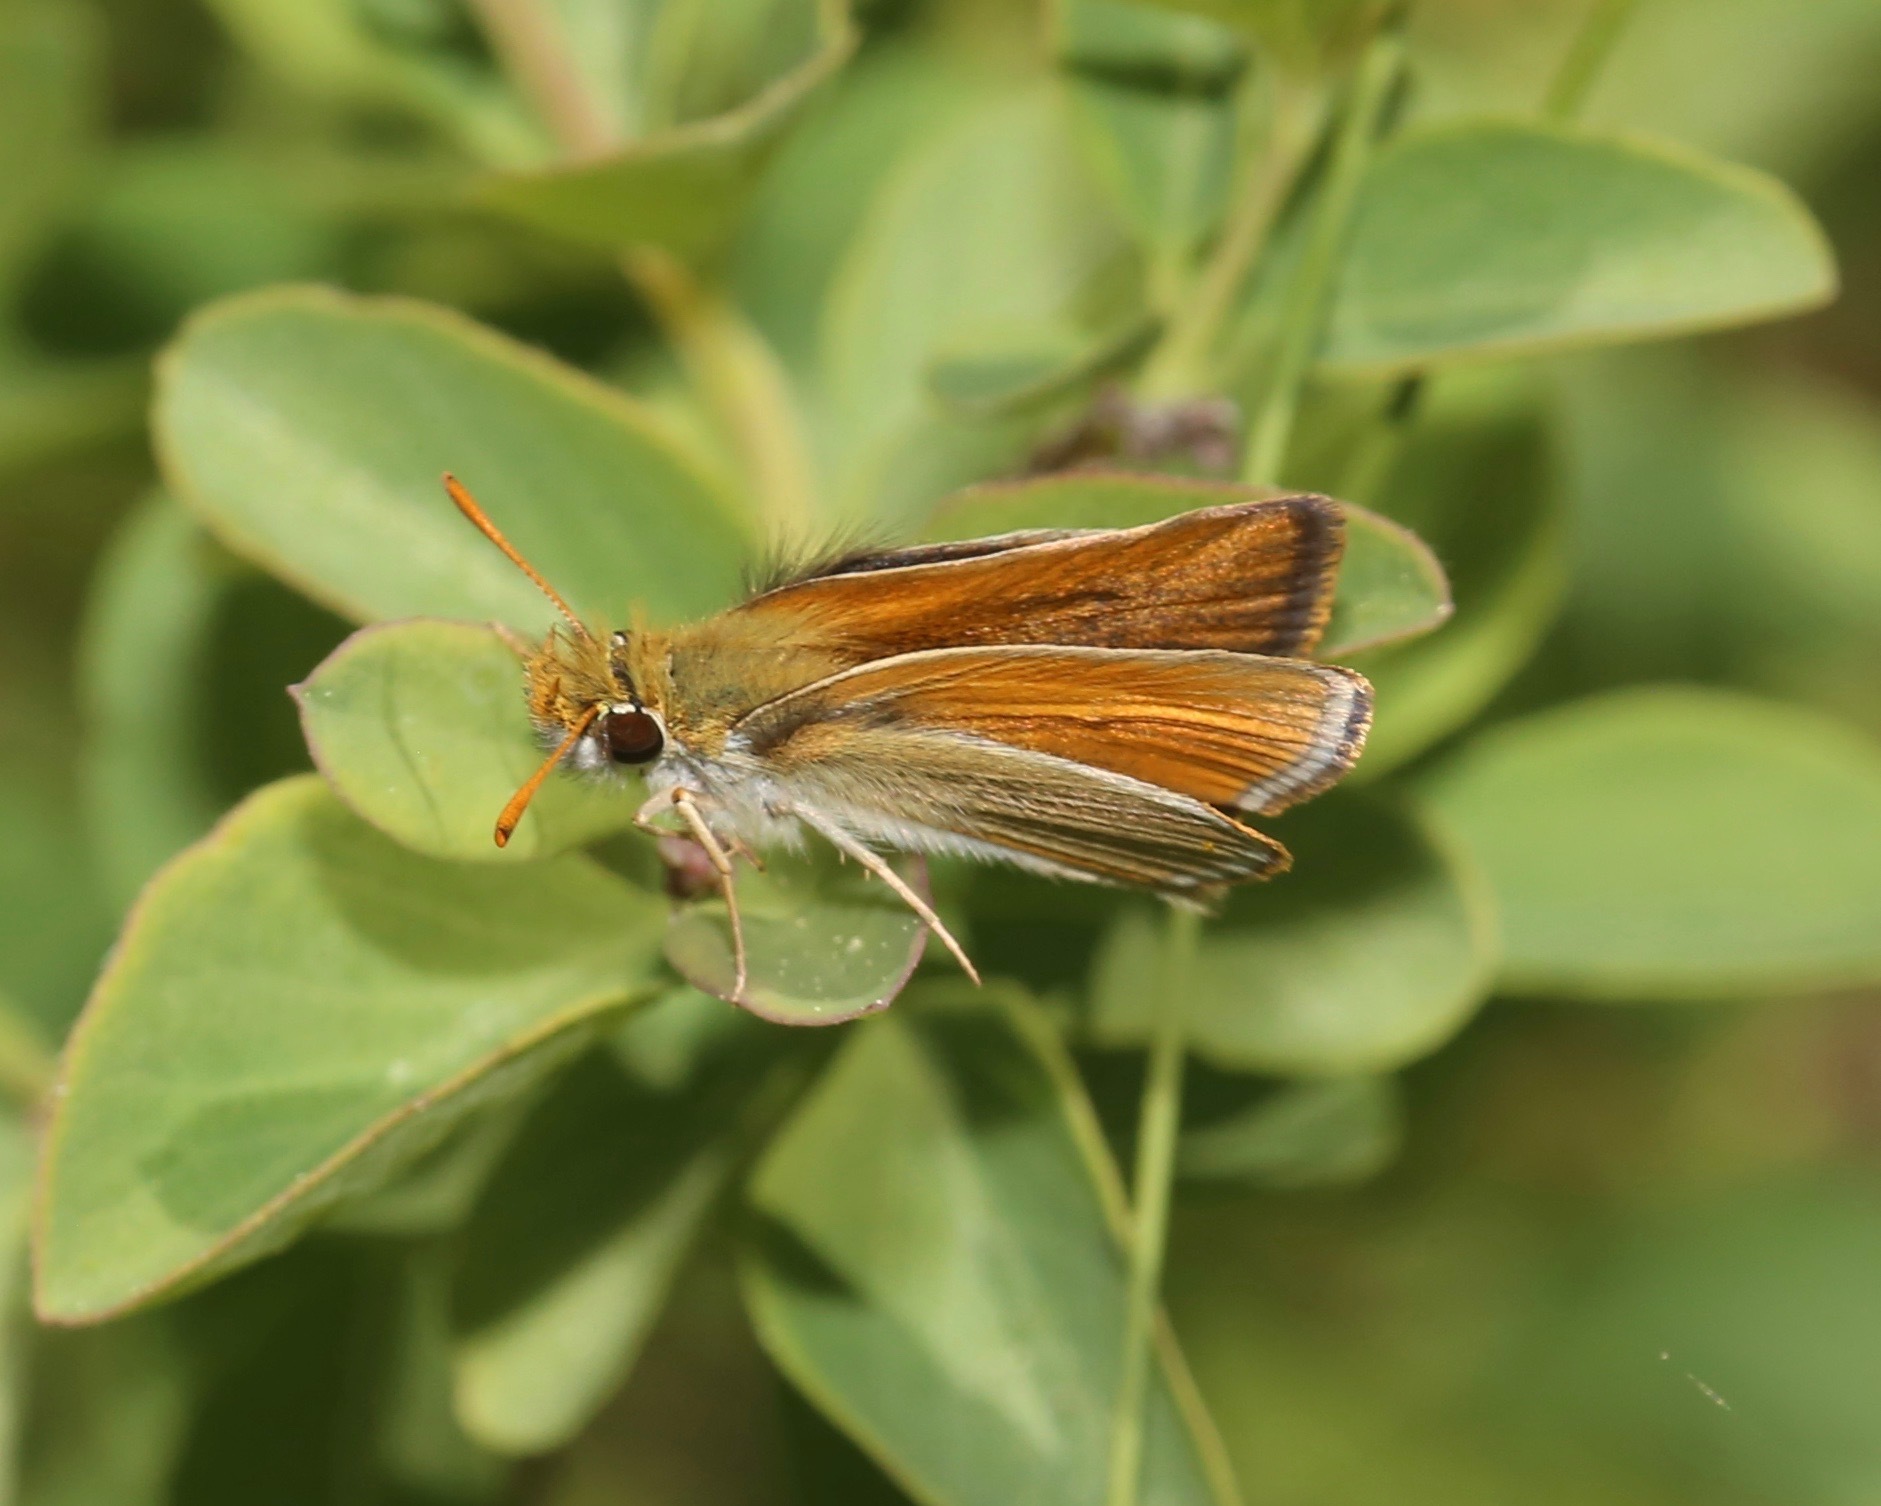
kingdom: Animalia
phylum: Arthropoda
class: Insecta
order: Lepidoptera
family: Hesperiidae
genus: Oarisma
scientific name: Oarisma garita
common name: Garita skipperling
